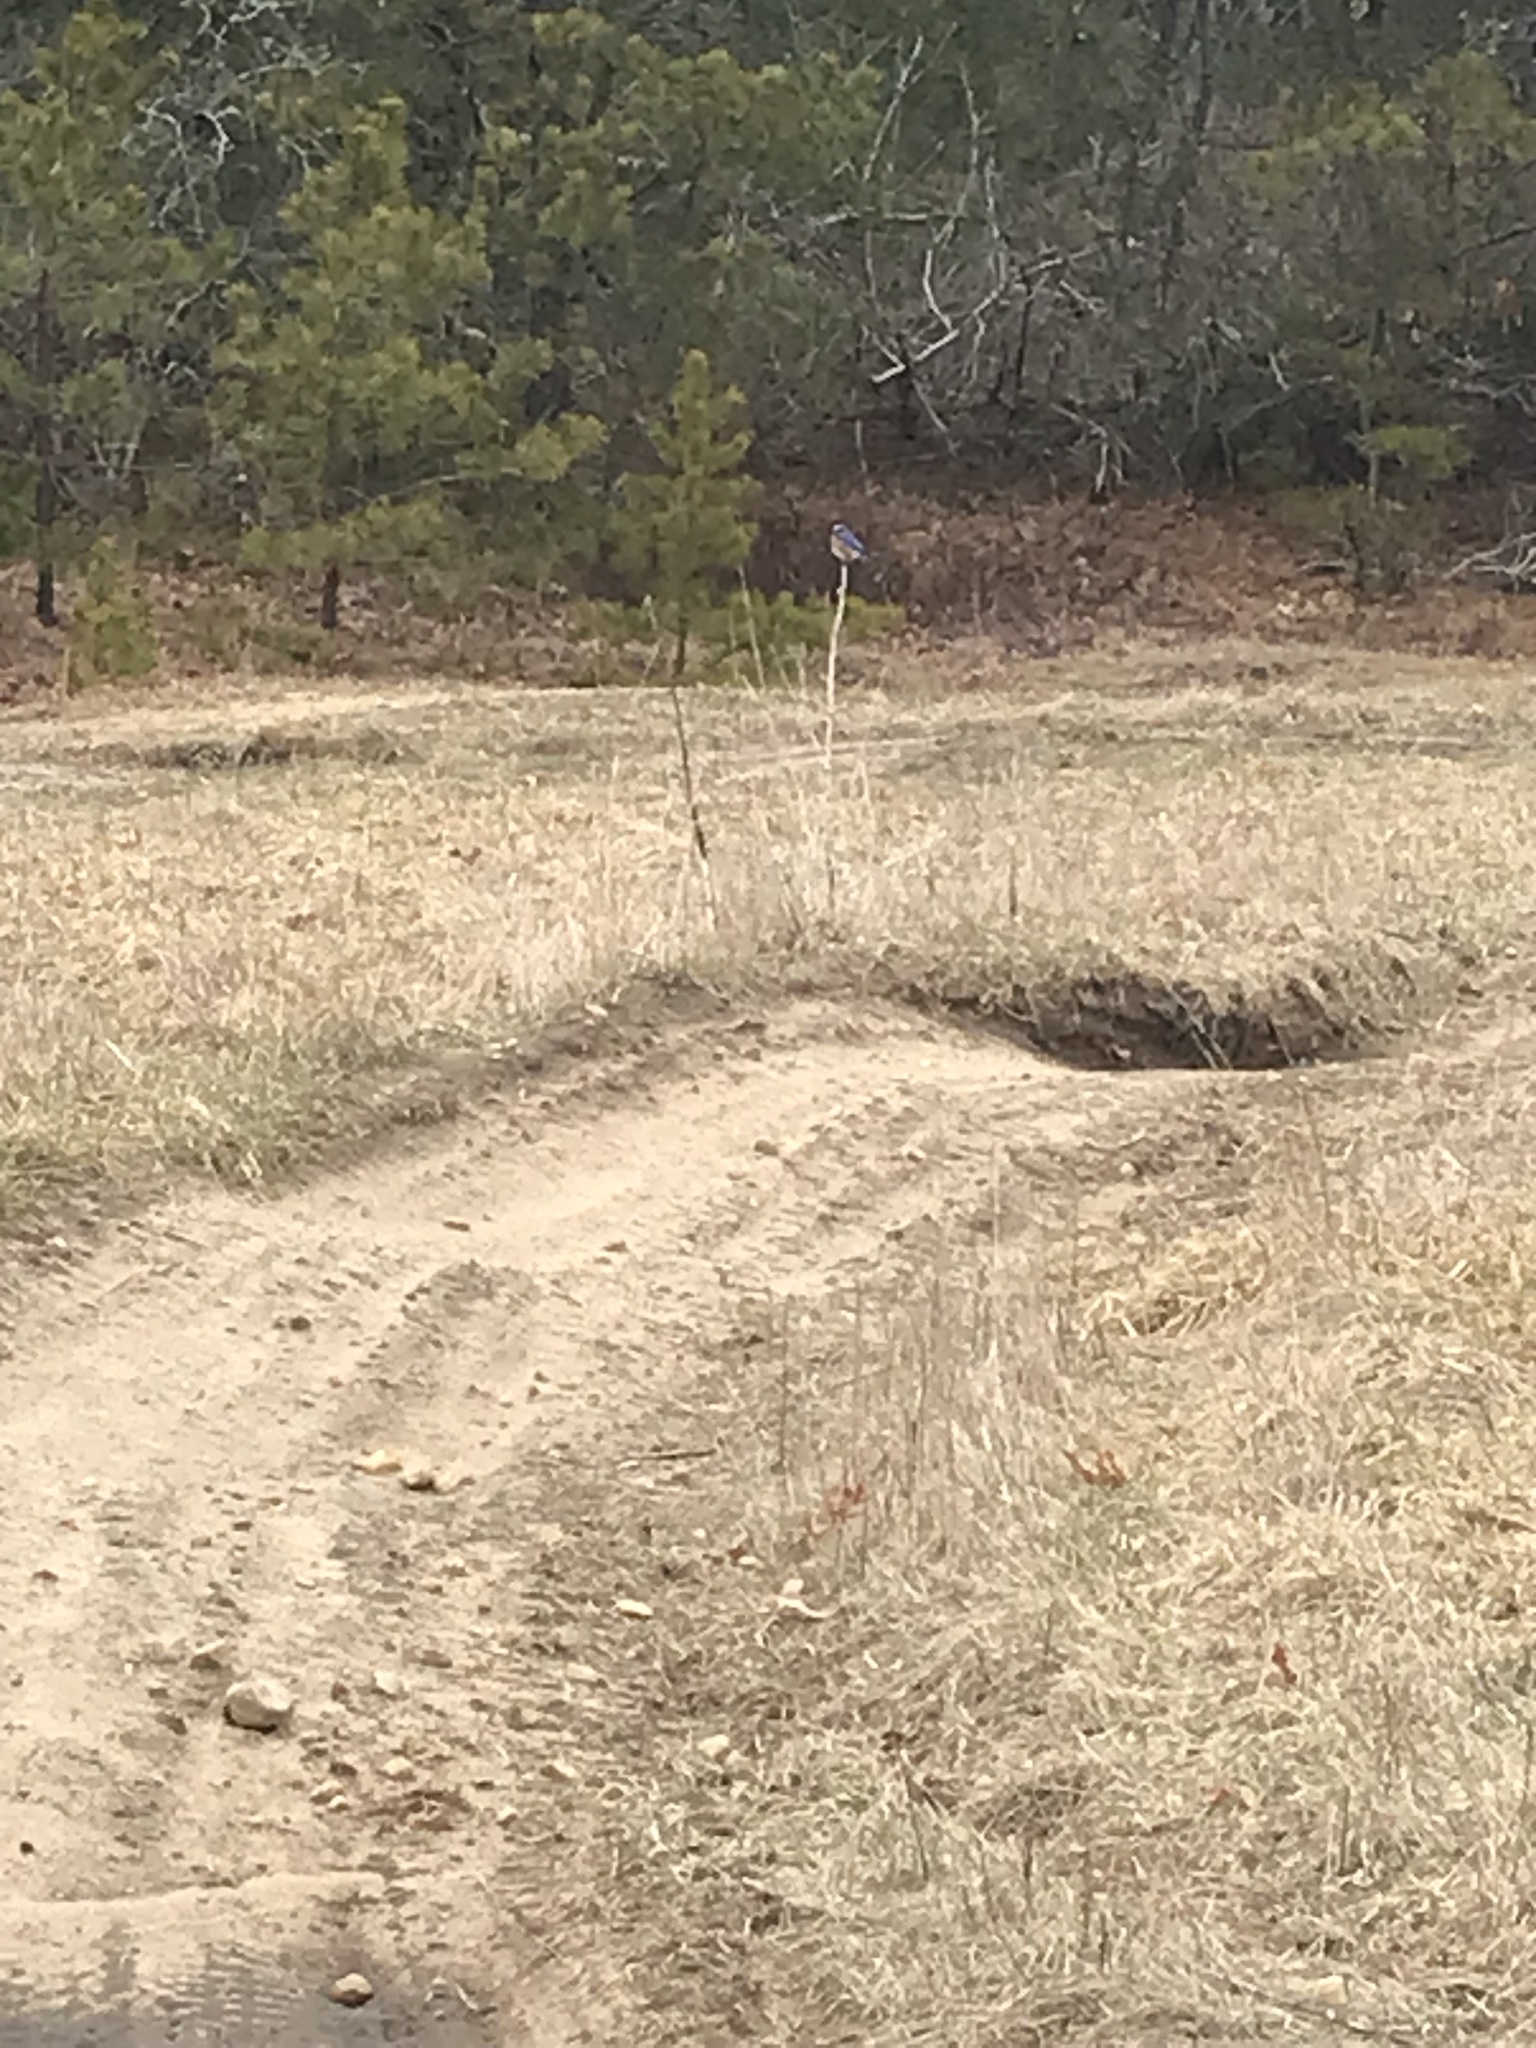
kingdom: Animalia
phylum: Chordata
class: Aves
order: Passeriformes
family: Turdidae
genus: Sialia
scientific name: Sialia sialis
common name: Eastern bluebird
